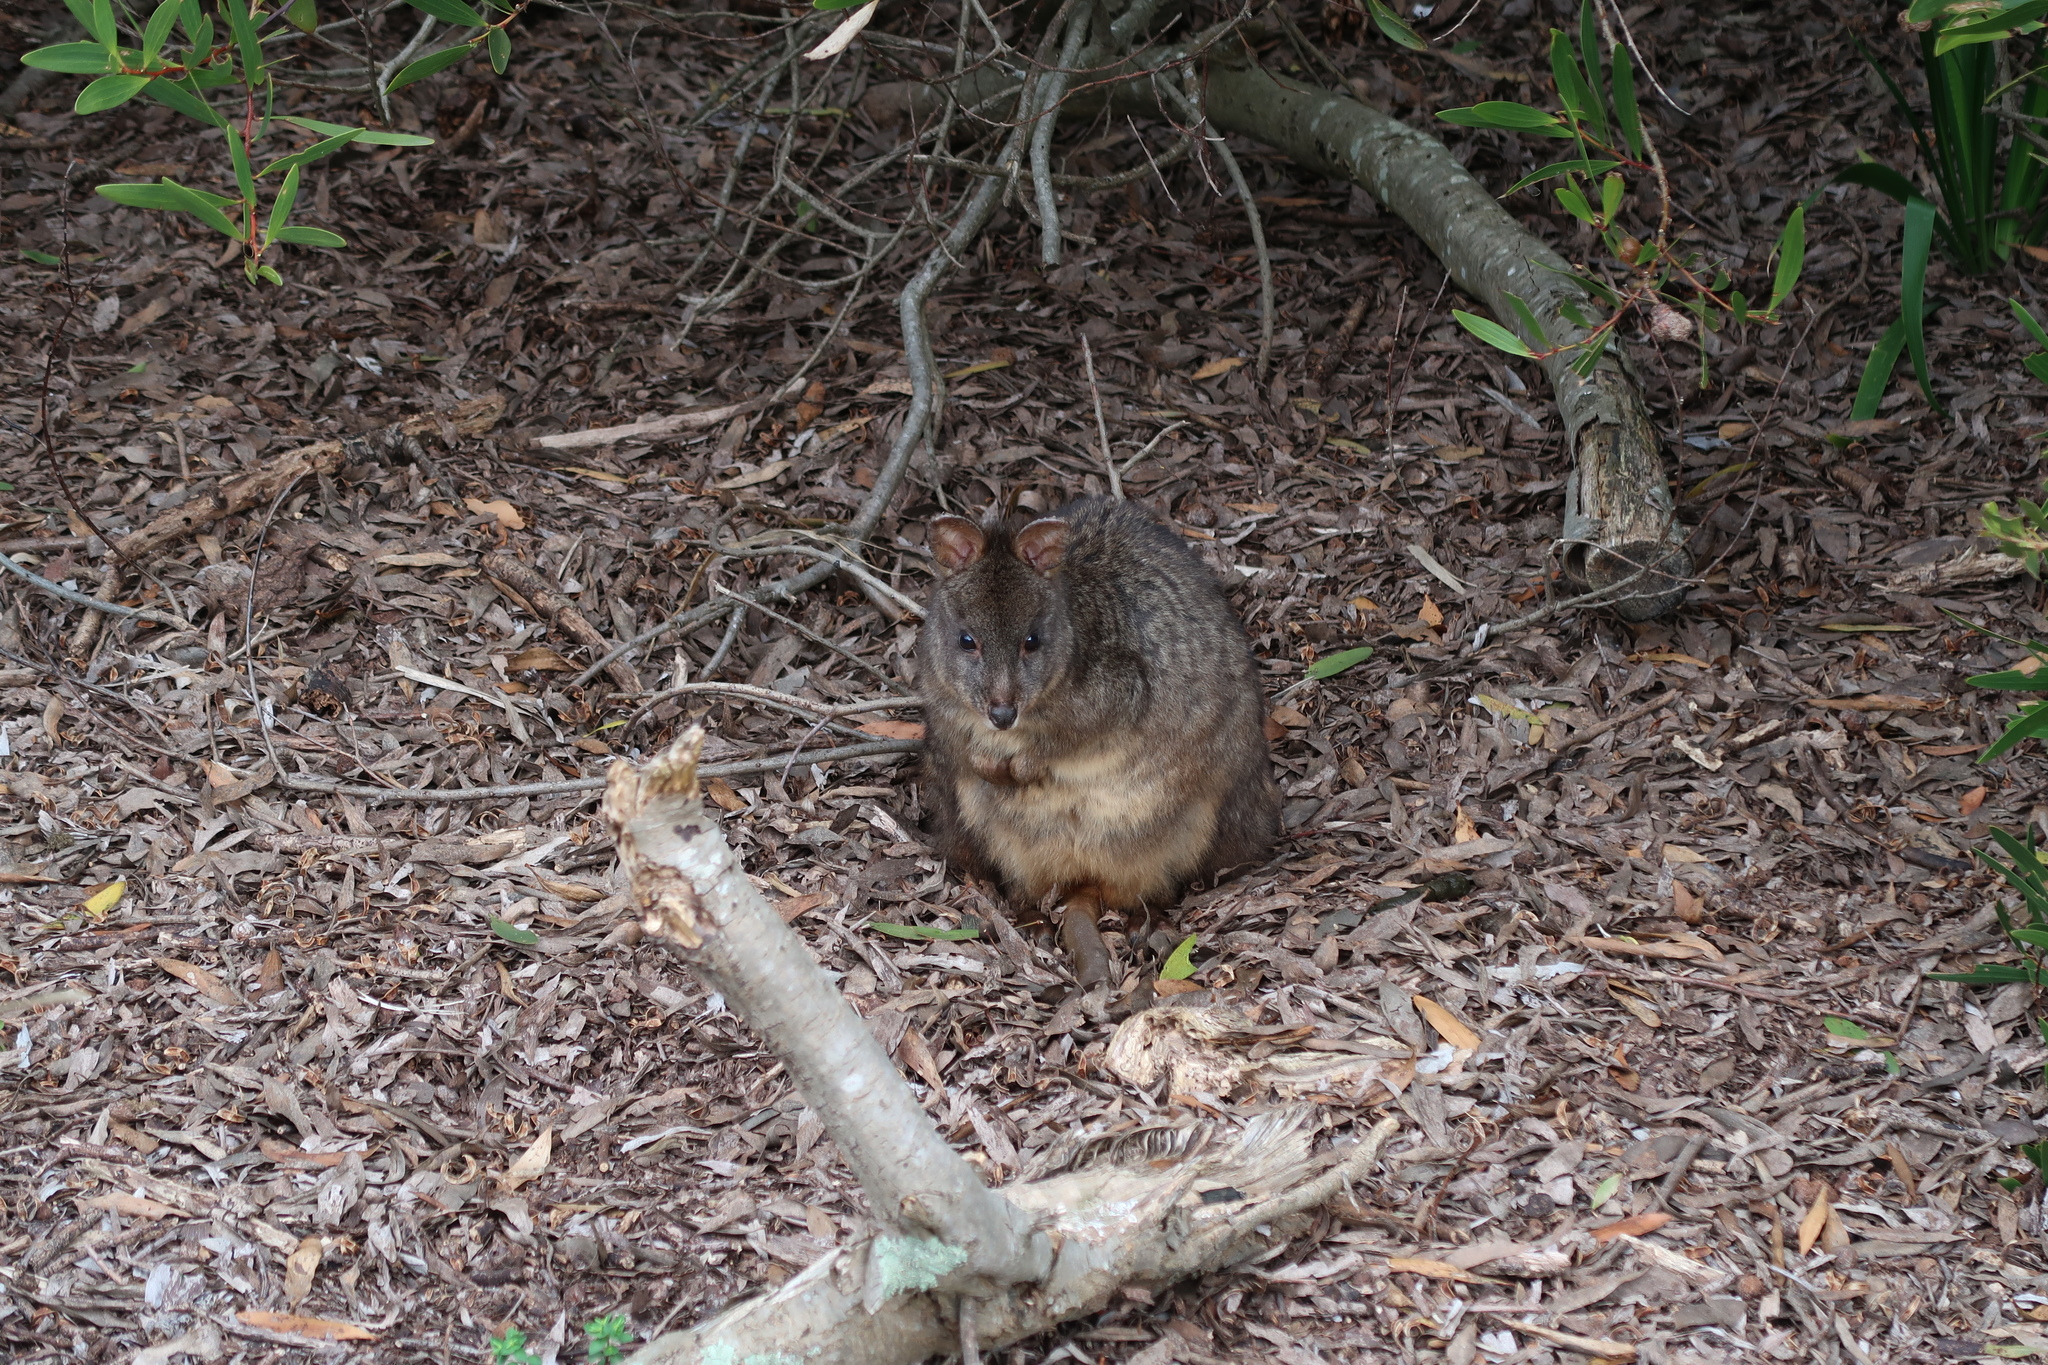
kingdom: Animalia
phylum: Chordata
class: Mammalia
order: Diprotodontia
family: Macropodidae
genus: Thylogale
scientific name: Thylogale billardierii
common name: Tasmanian pademelon
